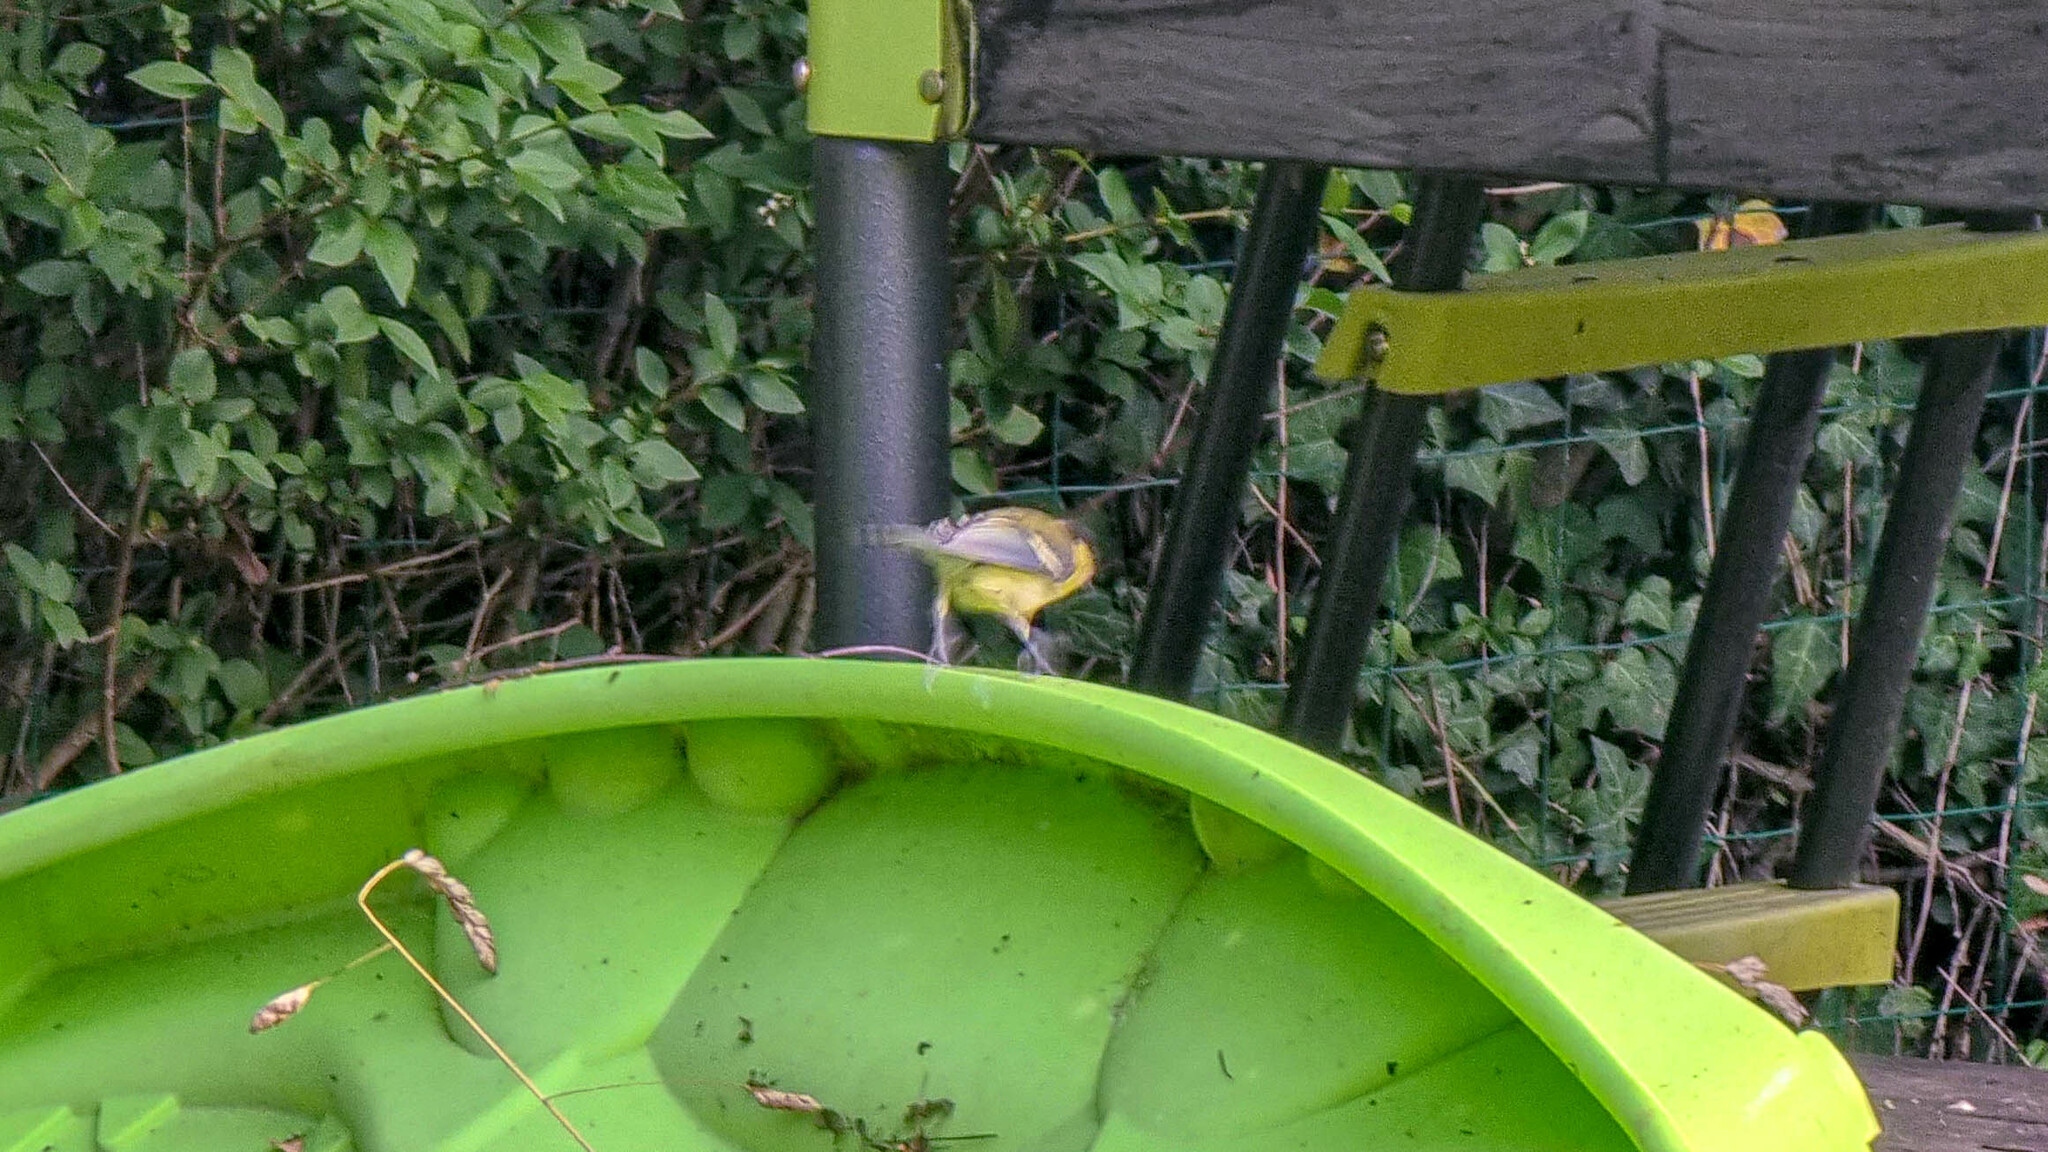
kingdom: Animalia
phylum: Chordata
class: Aves
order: Passeriformes
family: Paridae
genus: Parus
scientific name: Parus major
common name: Great tit
